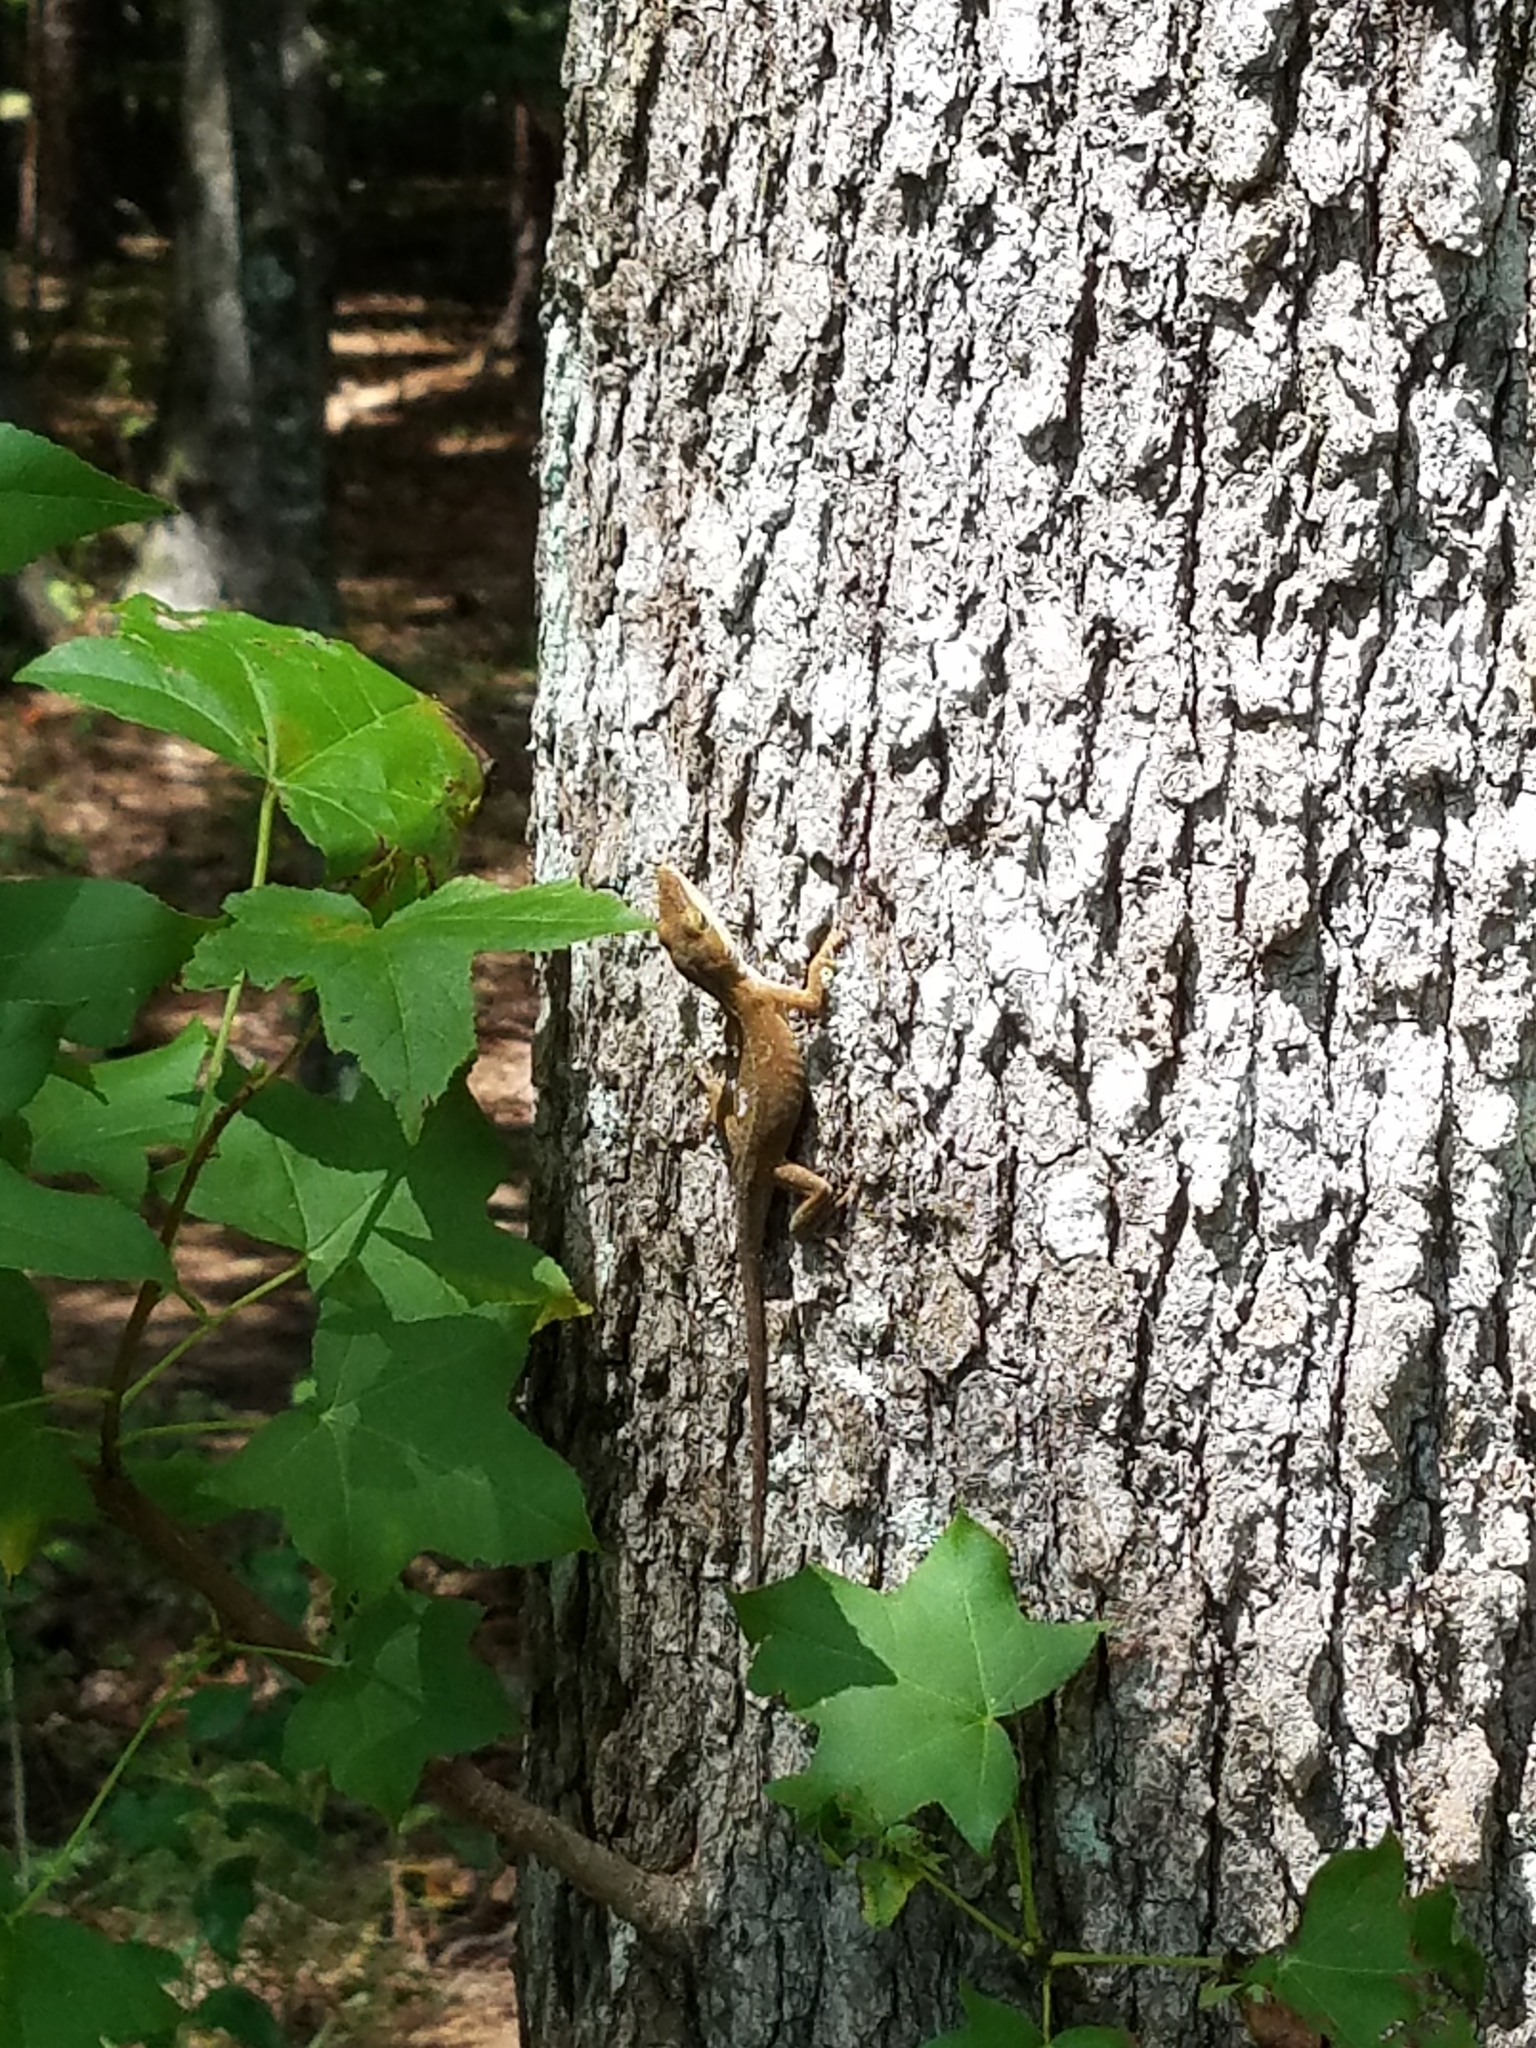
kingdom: Animalia
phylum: Chordata
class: Squamata
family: Dactyloidae
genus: Anolis
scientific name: Anolis carolinensis
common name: Green anole
